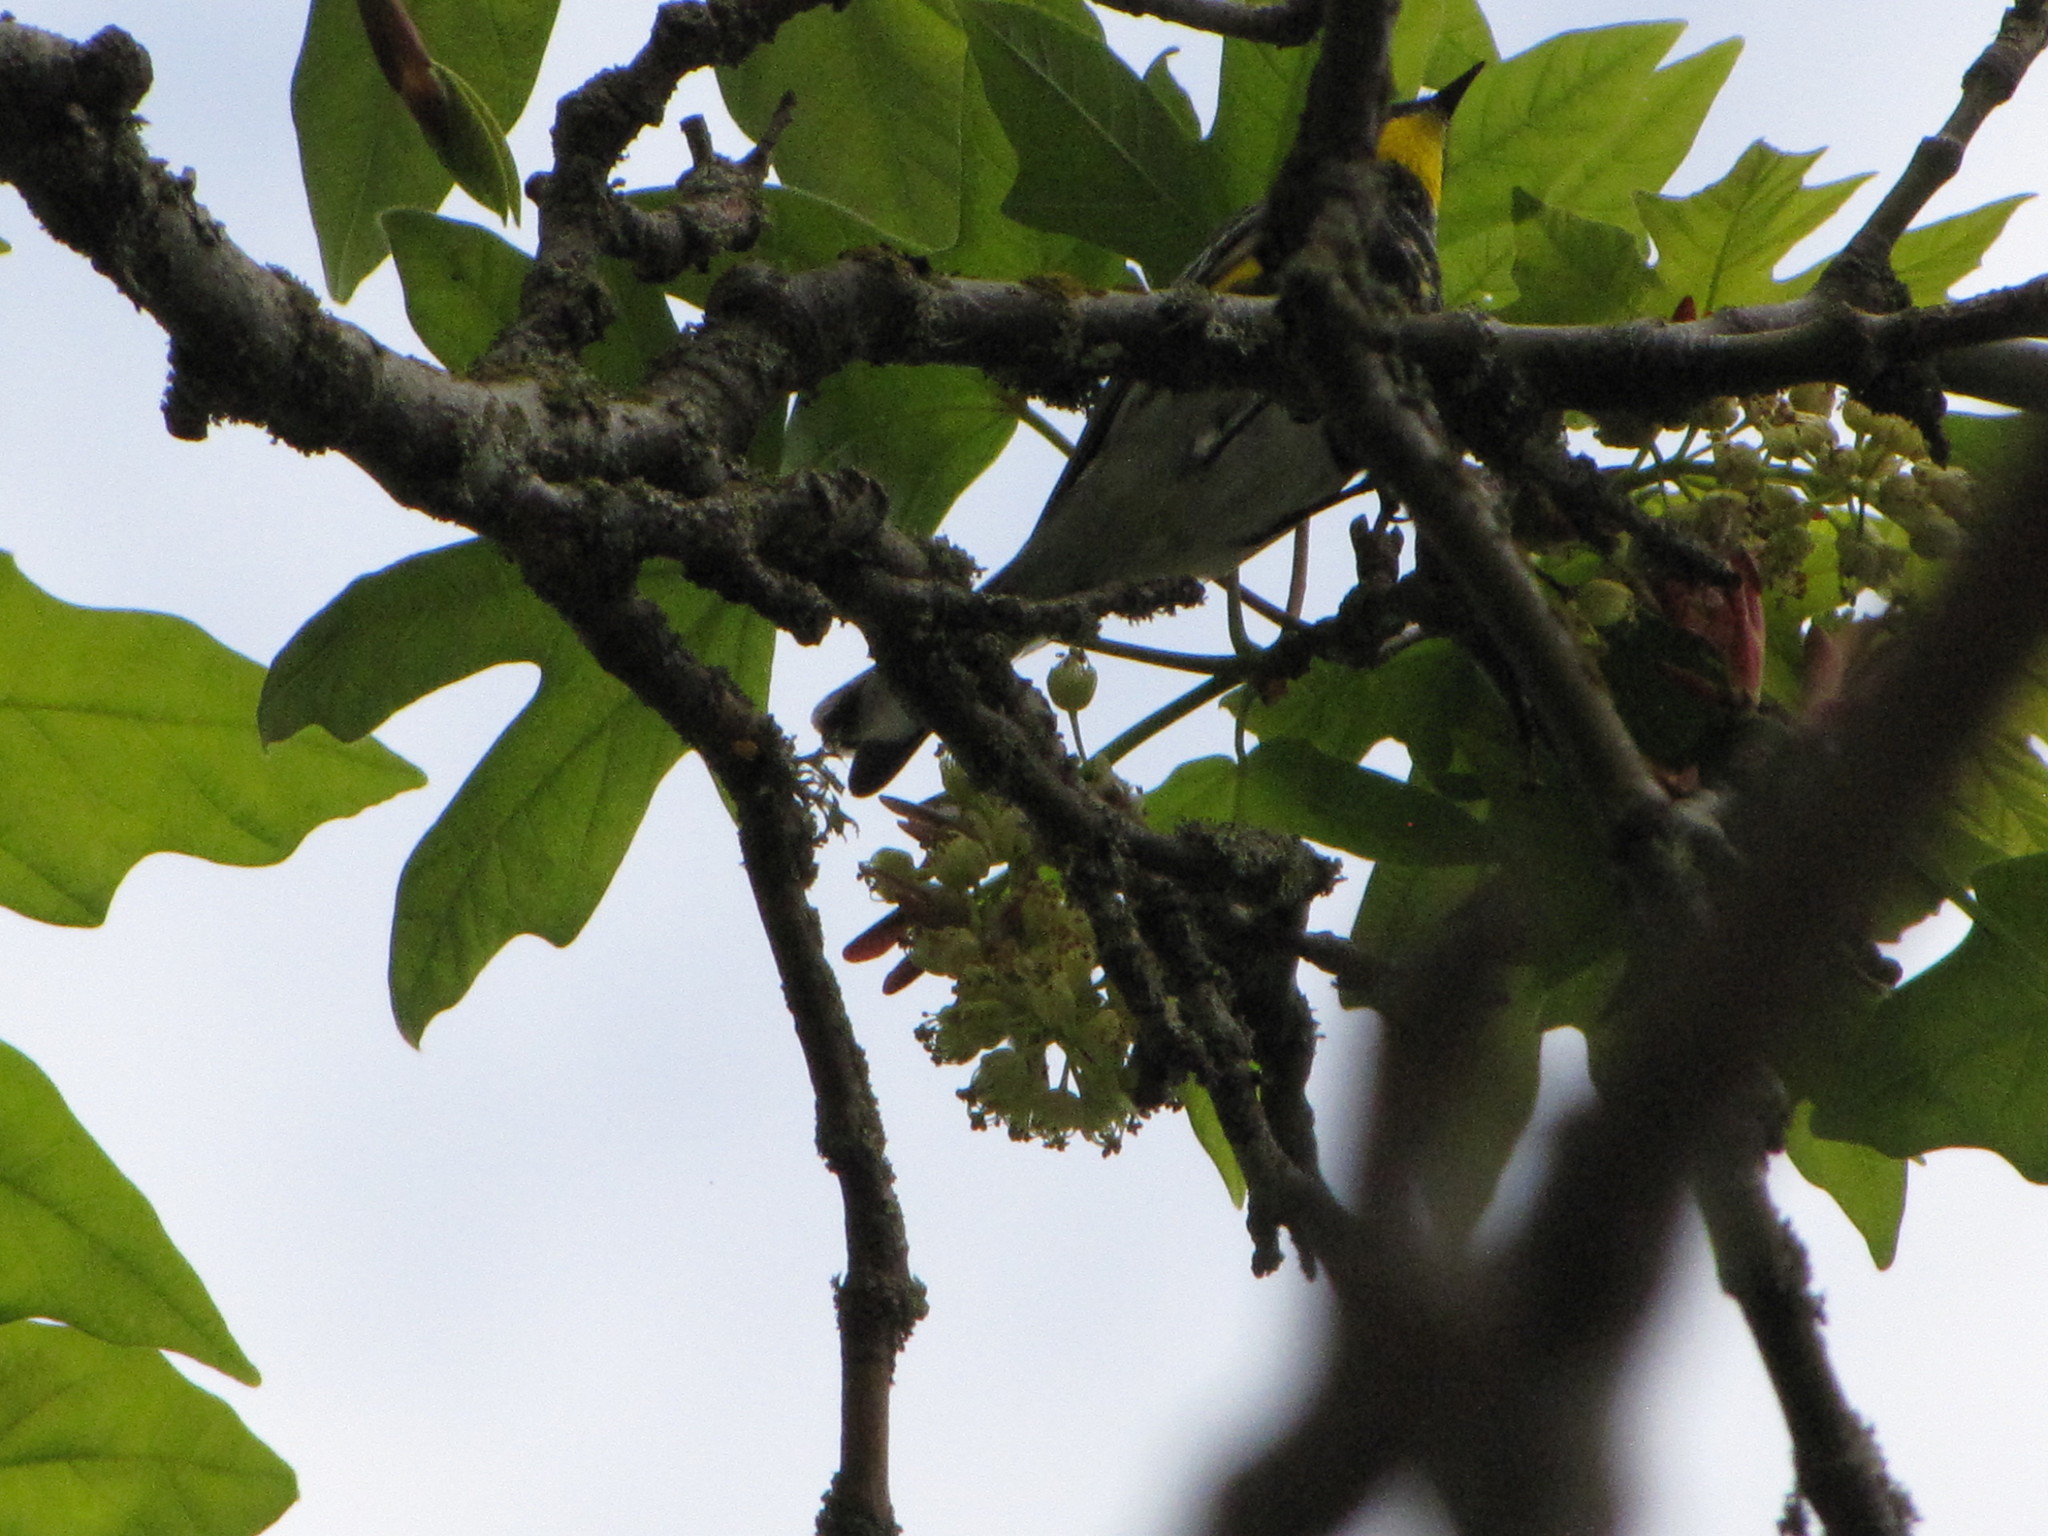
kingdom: Animalia
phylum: Chordata
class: Aves
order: Passeriformes
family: Parulidae
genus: Setophaga
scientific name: Setophaga auduboni
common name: Audubon's warbler
